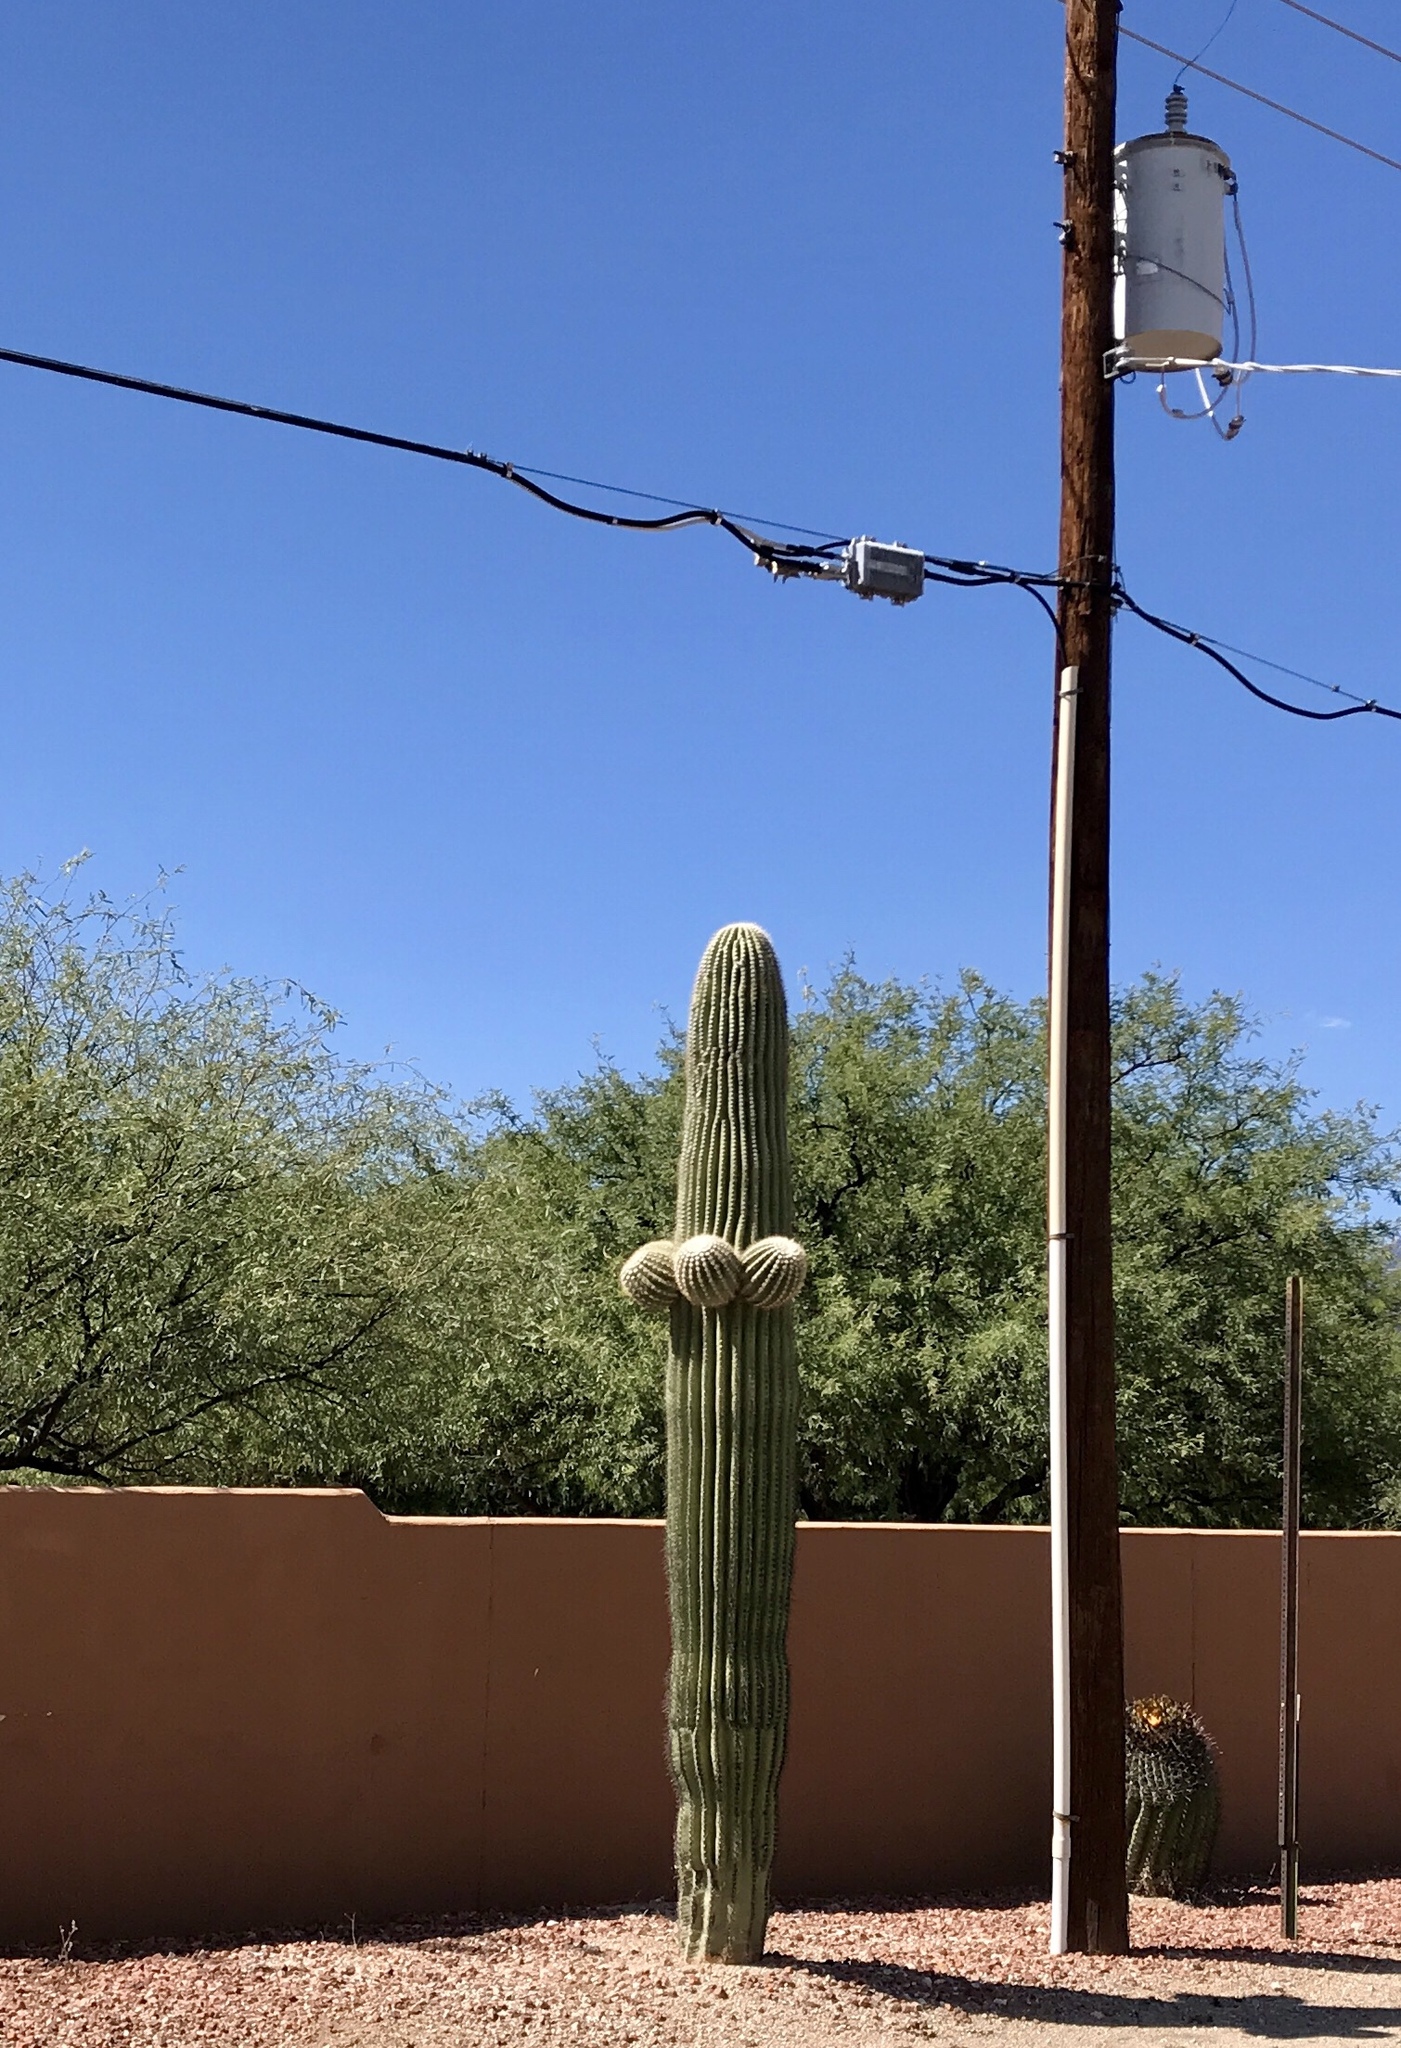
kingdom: Plantae
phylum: Tracheophyta
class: Magnoliopsida
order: Caryophyllales
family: Cactaceae
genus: Carnegiea
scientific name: Carnegiea gigantea
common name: Saguaro
